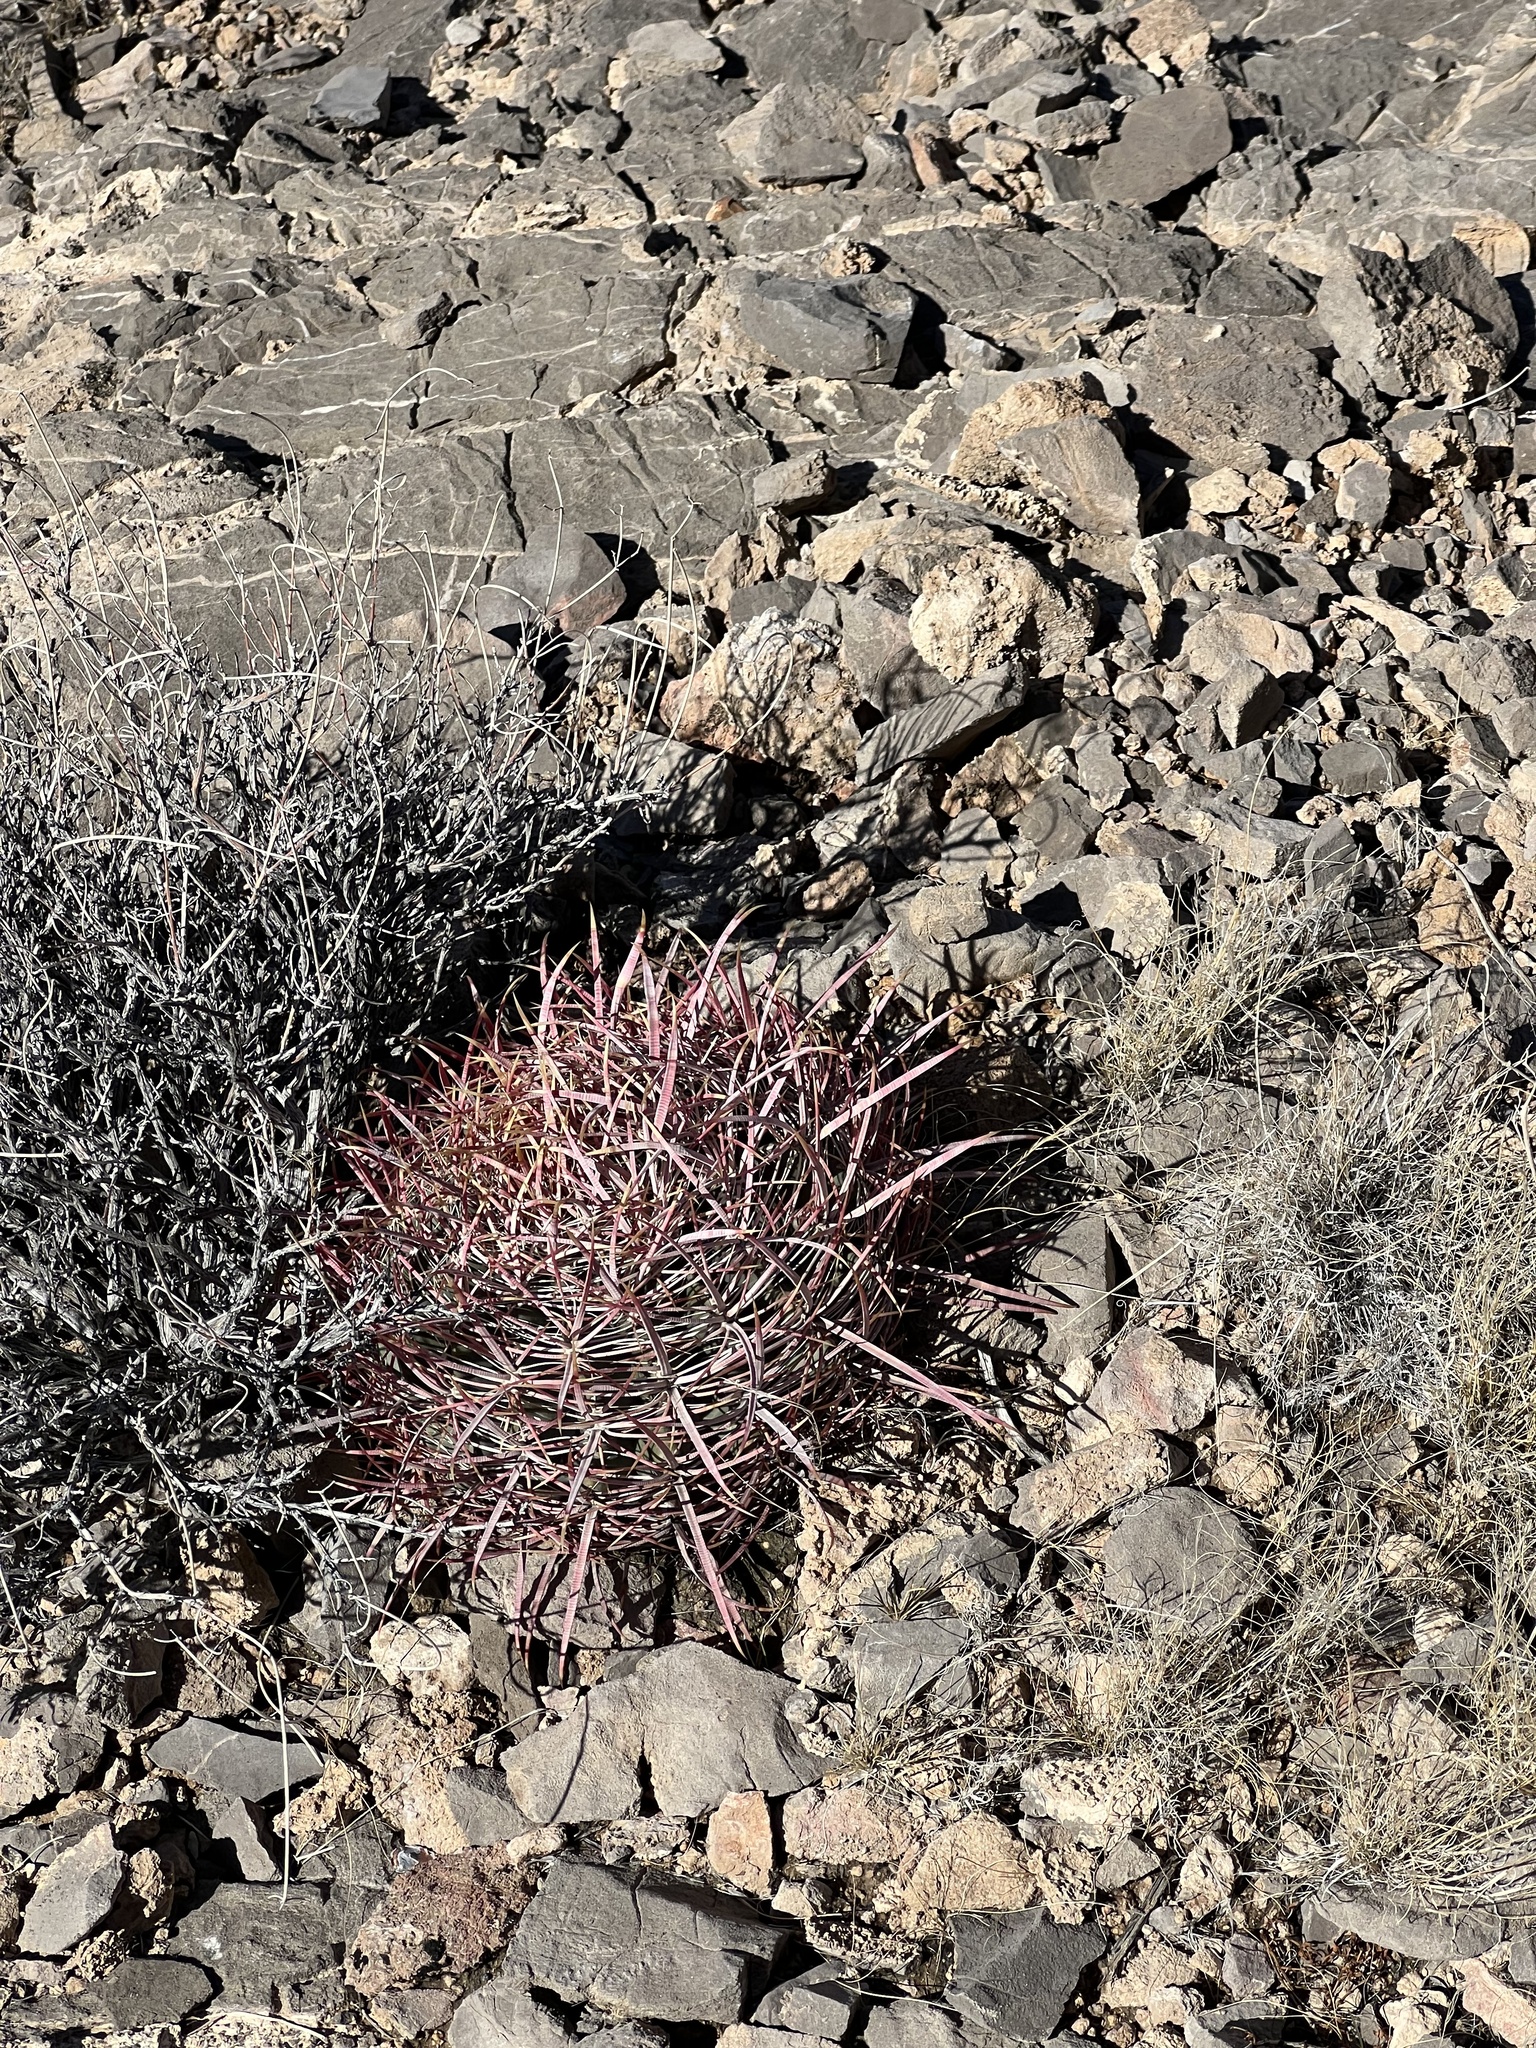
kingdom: Plantae
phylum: Tracheophyta
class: Magnoliopsida
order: Caryophyllales
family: Cactaceae
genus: Ferocactus
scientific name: Ferocactus cylindraceus
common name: California barrel cactus
